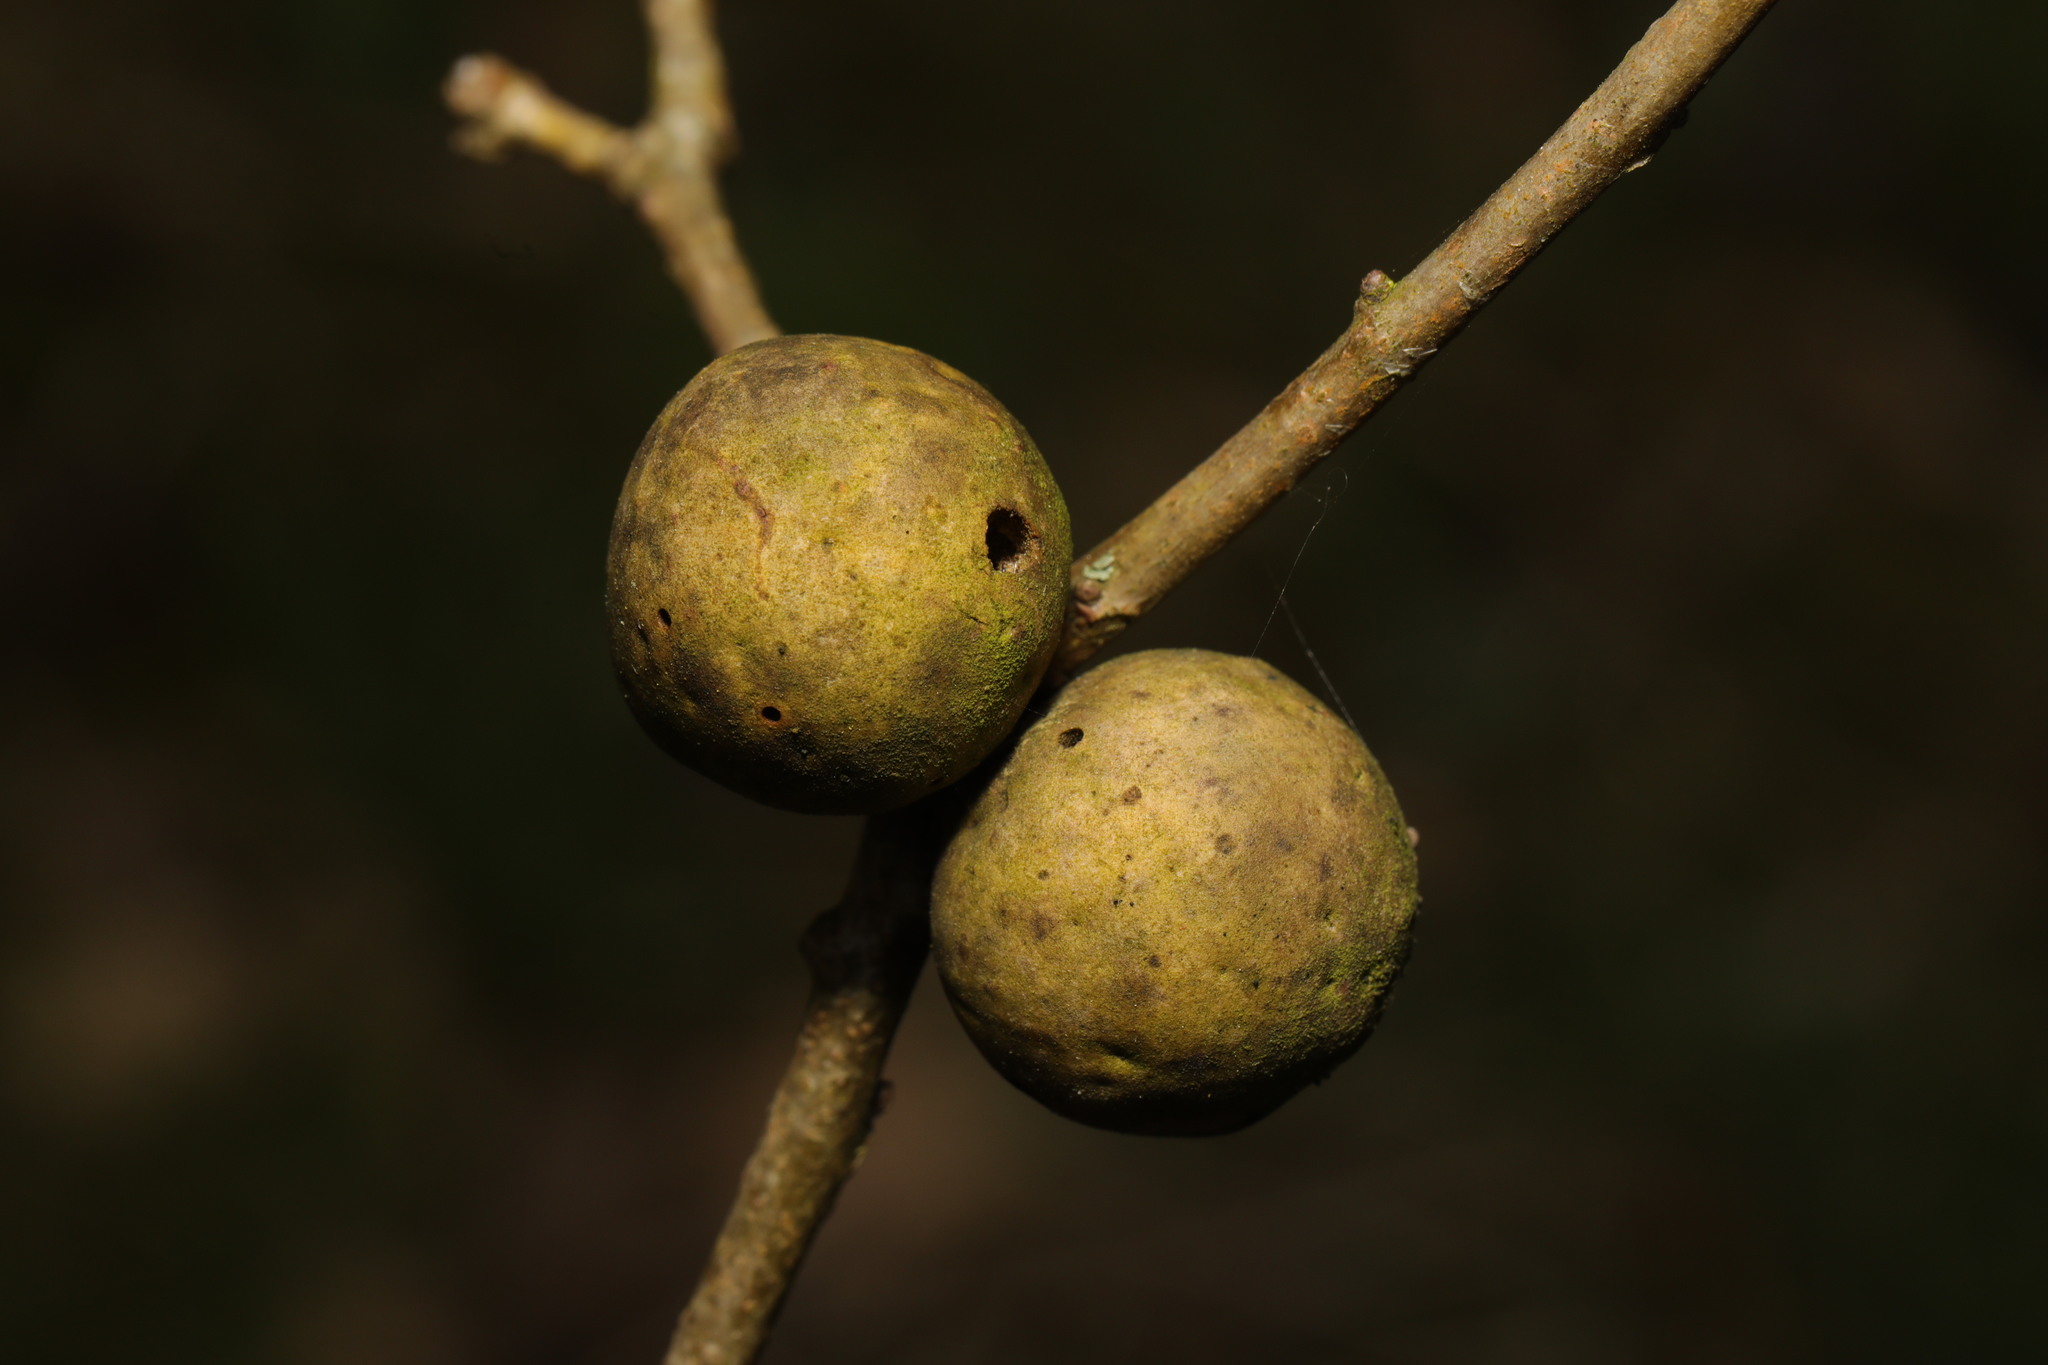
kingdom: Animalia
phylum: Arthropoda
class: Insecta
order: Hymenoptera
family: Cynipidae
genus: Andricus
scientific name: Andricus kollari
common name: Marble gall
